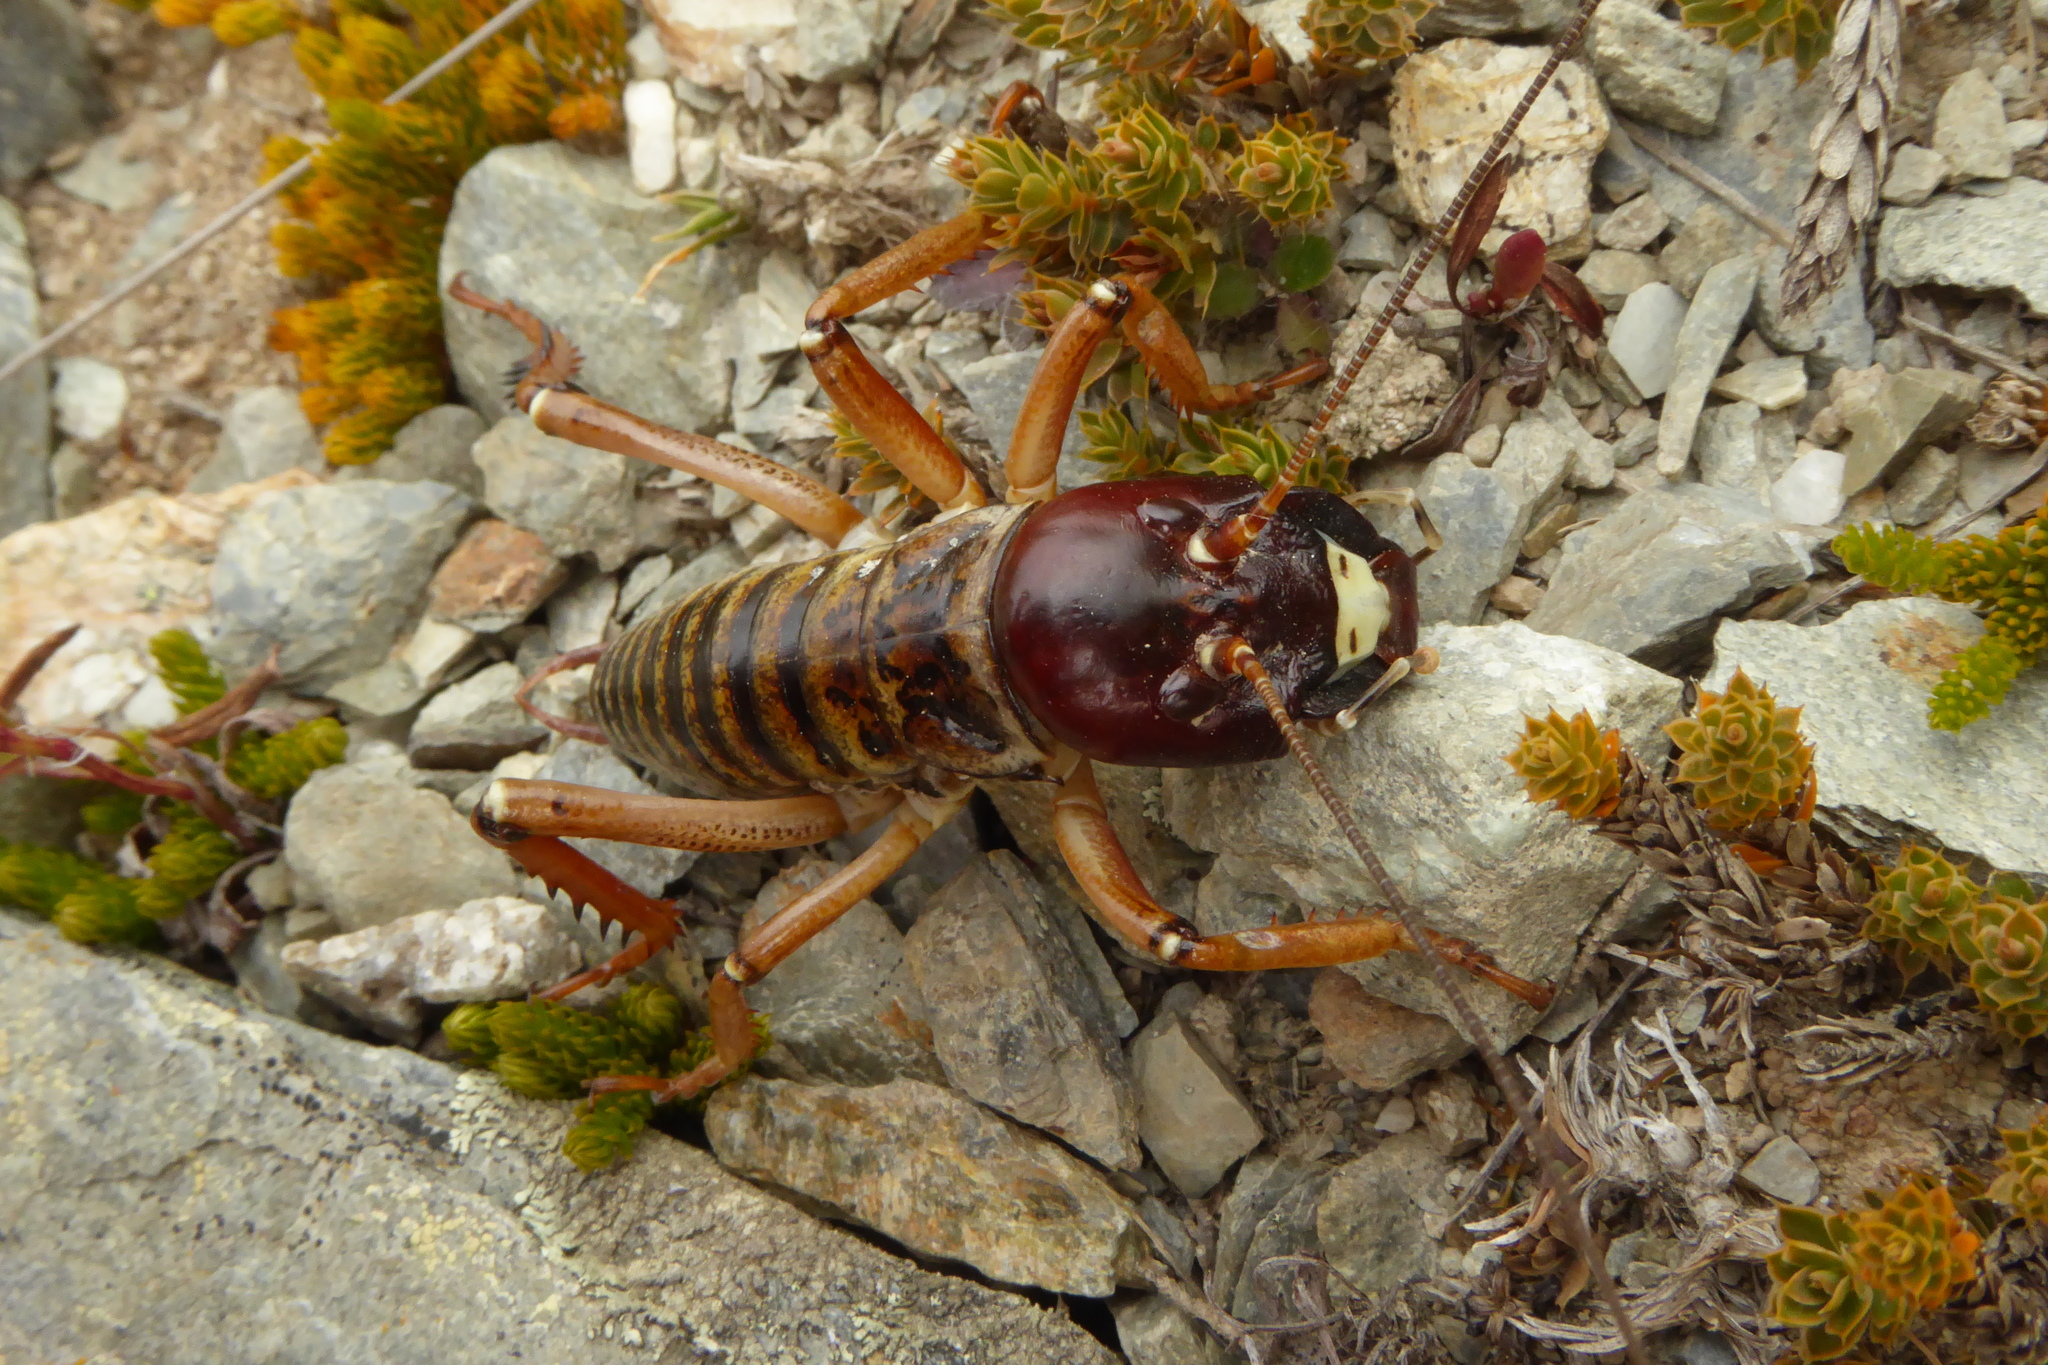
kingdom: Animalia
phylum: Arthropoda
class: Insecta
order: Orthoptera
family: Anostostomatidae
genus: Hemideina
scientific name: Hemideina maori
